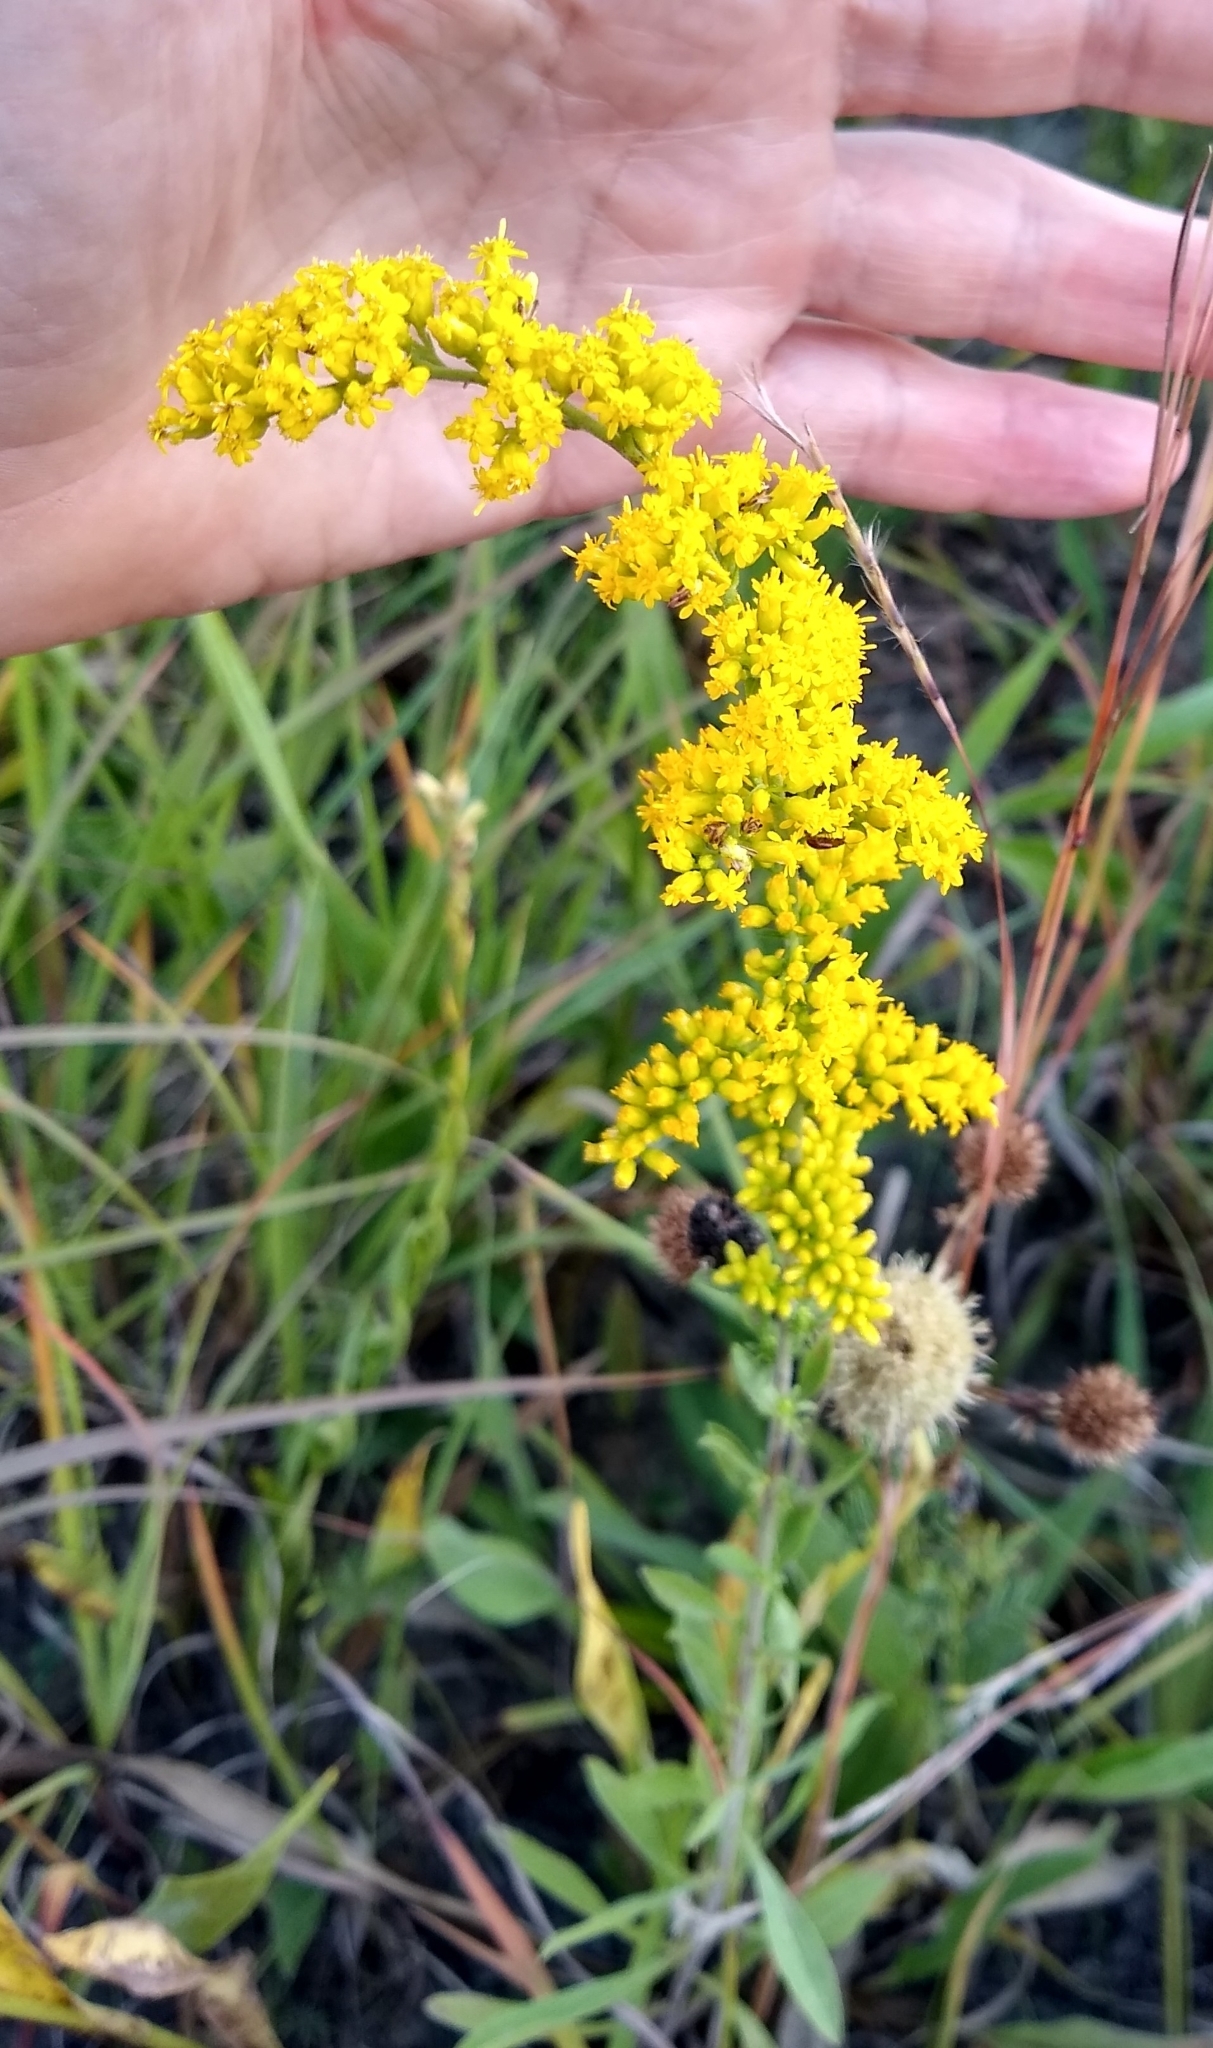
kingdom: Plantae
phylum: Tracheophyta
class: Magnoliopsida
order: Asterales
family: Asteraceae
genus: Solidago
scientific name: Solidago nemoralis
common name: Grey goldenrod
